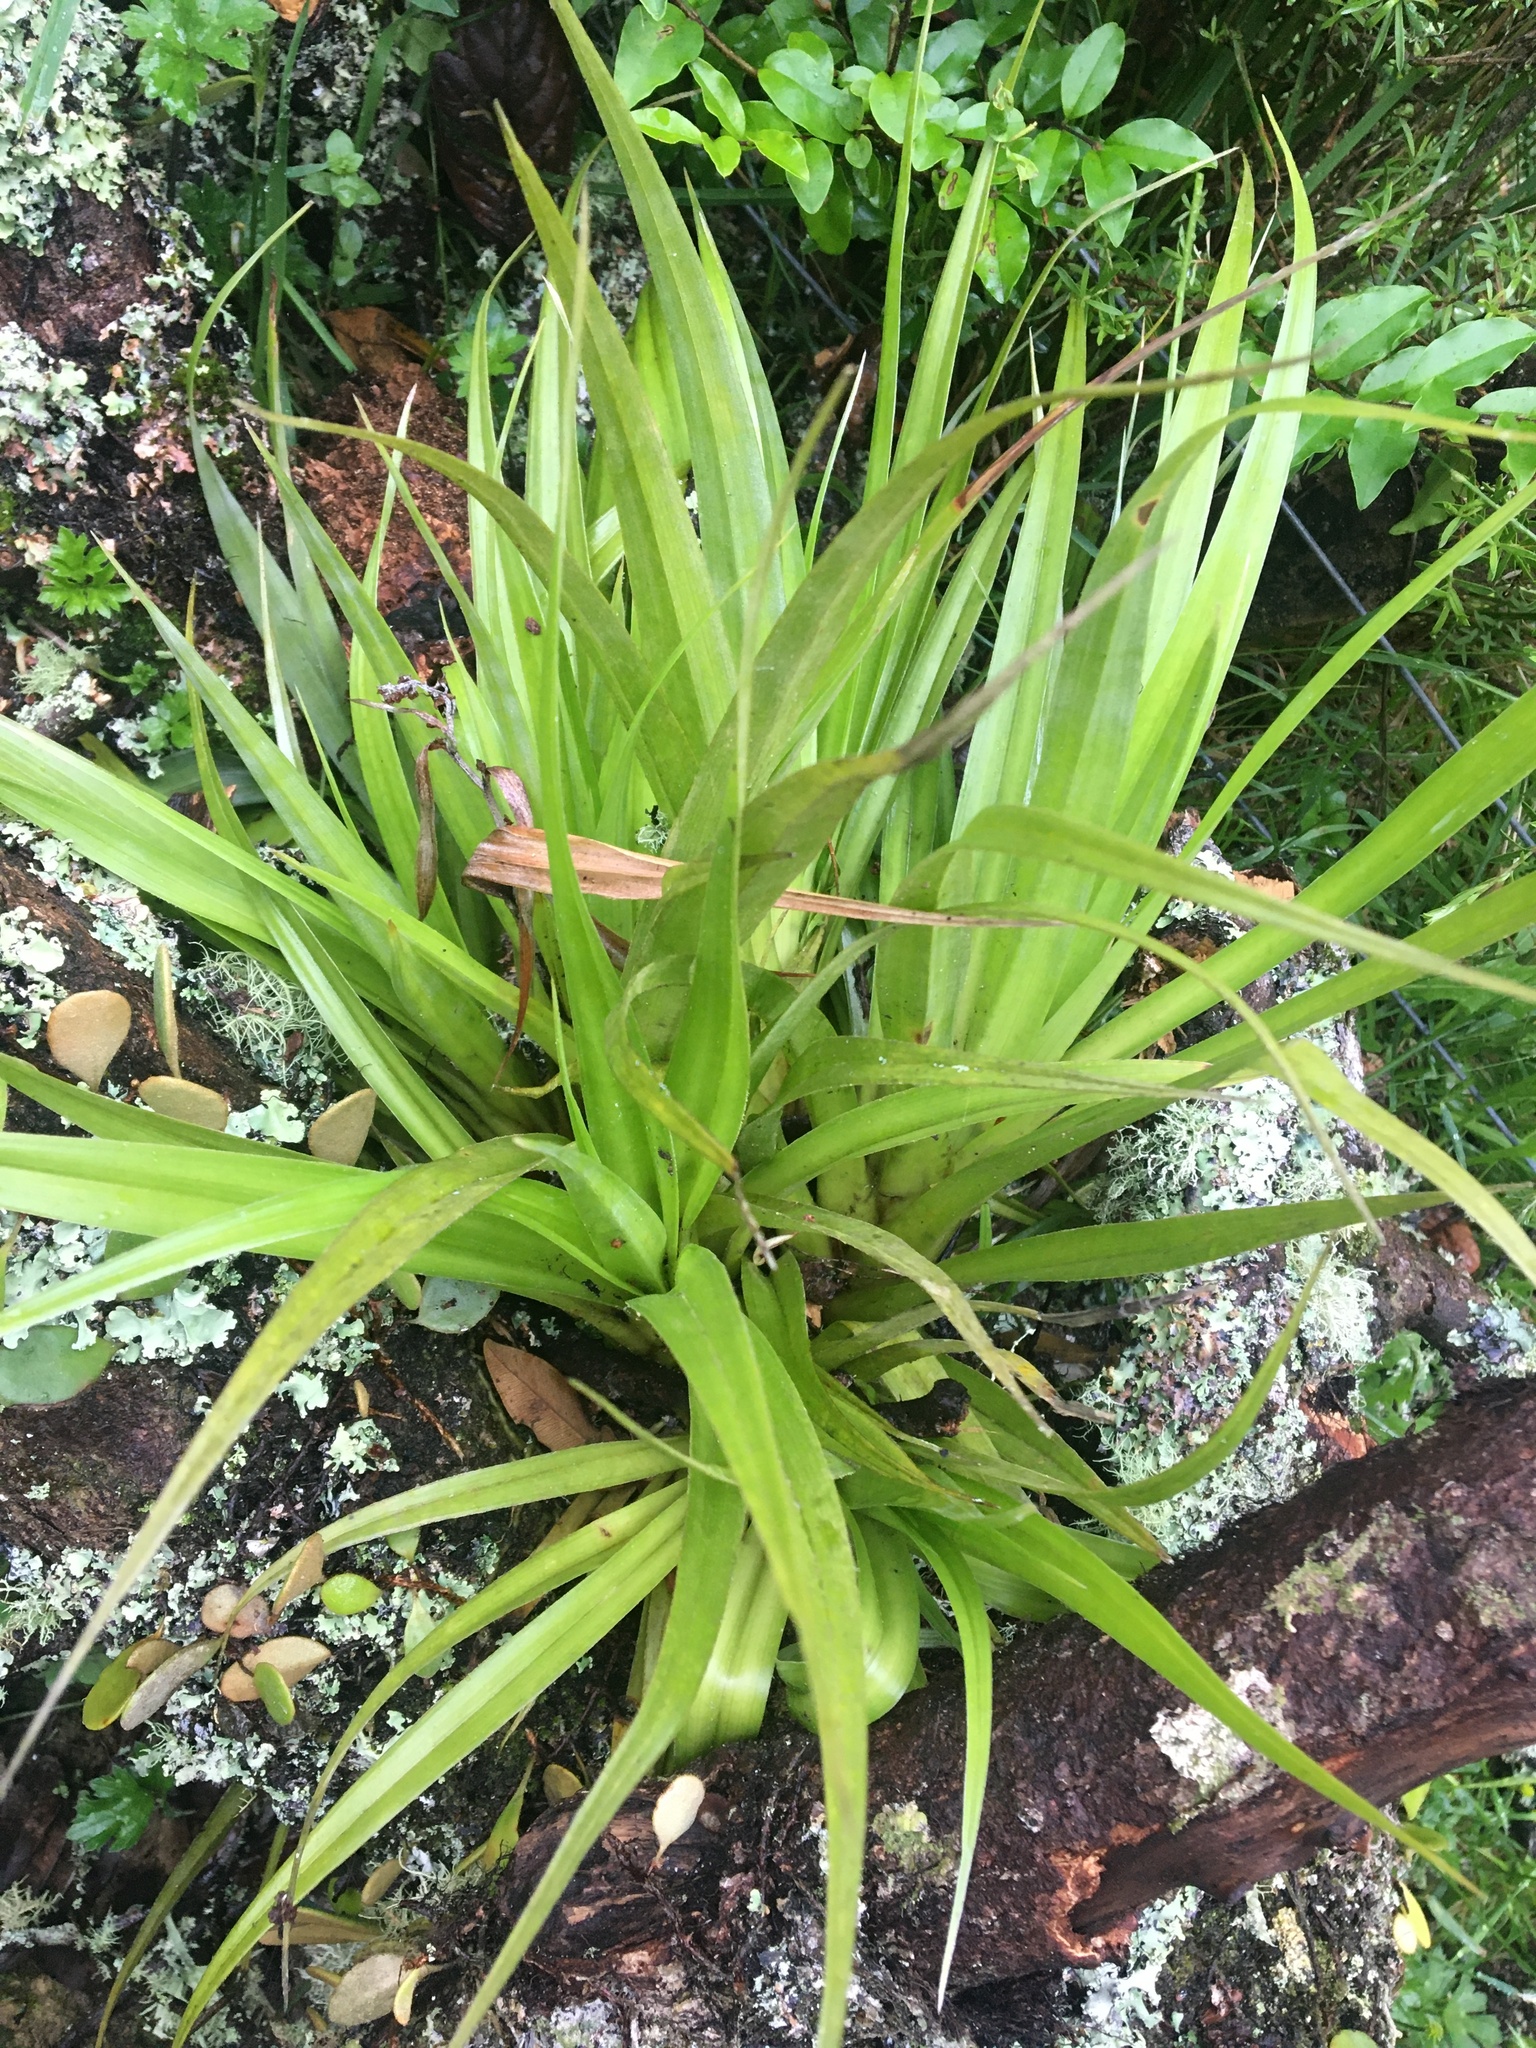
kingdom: Plantae
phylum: Tracheophyta
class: Liliopsida
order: Asparagales
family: Asteliaceae
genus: Astelia
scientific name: Astelia hastata
